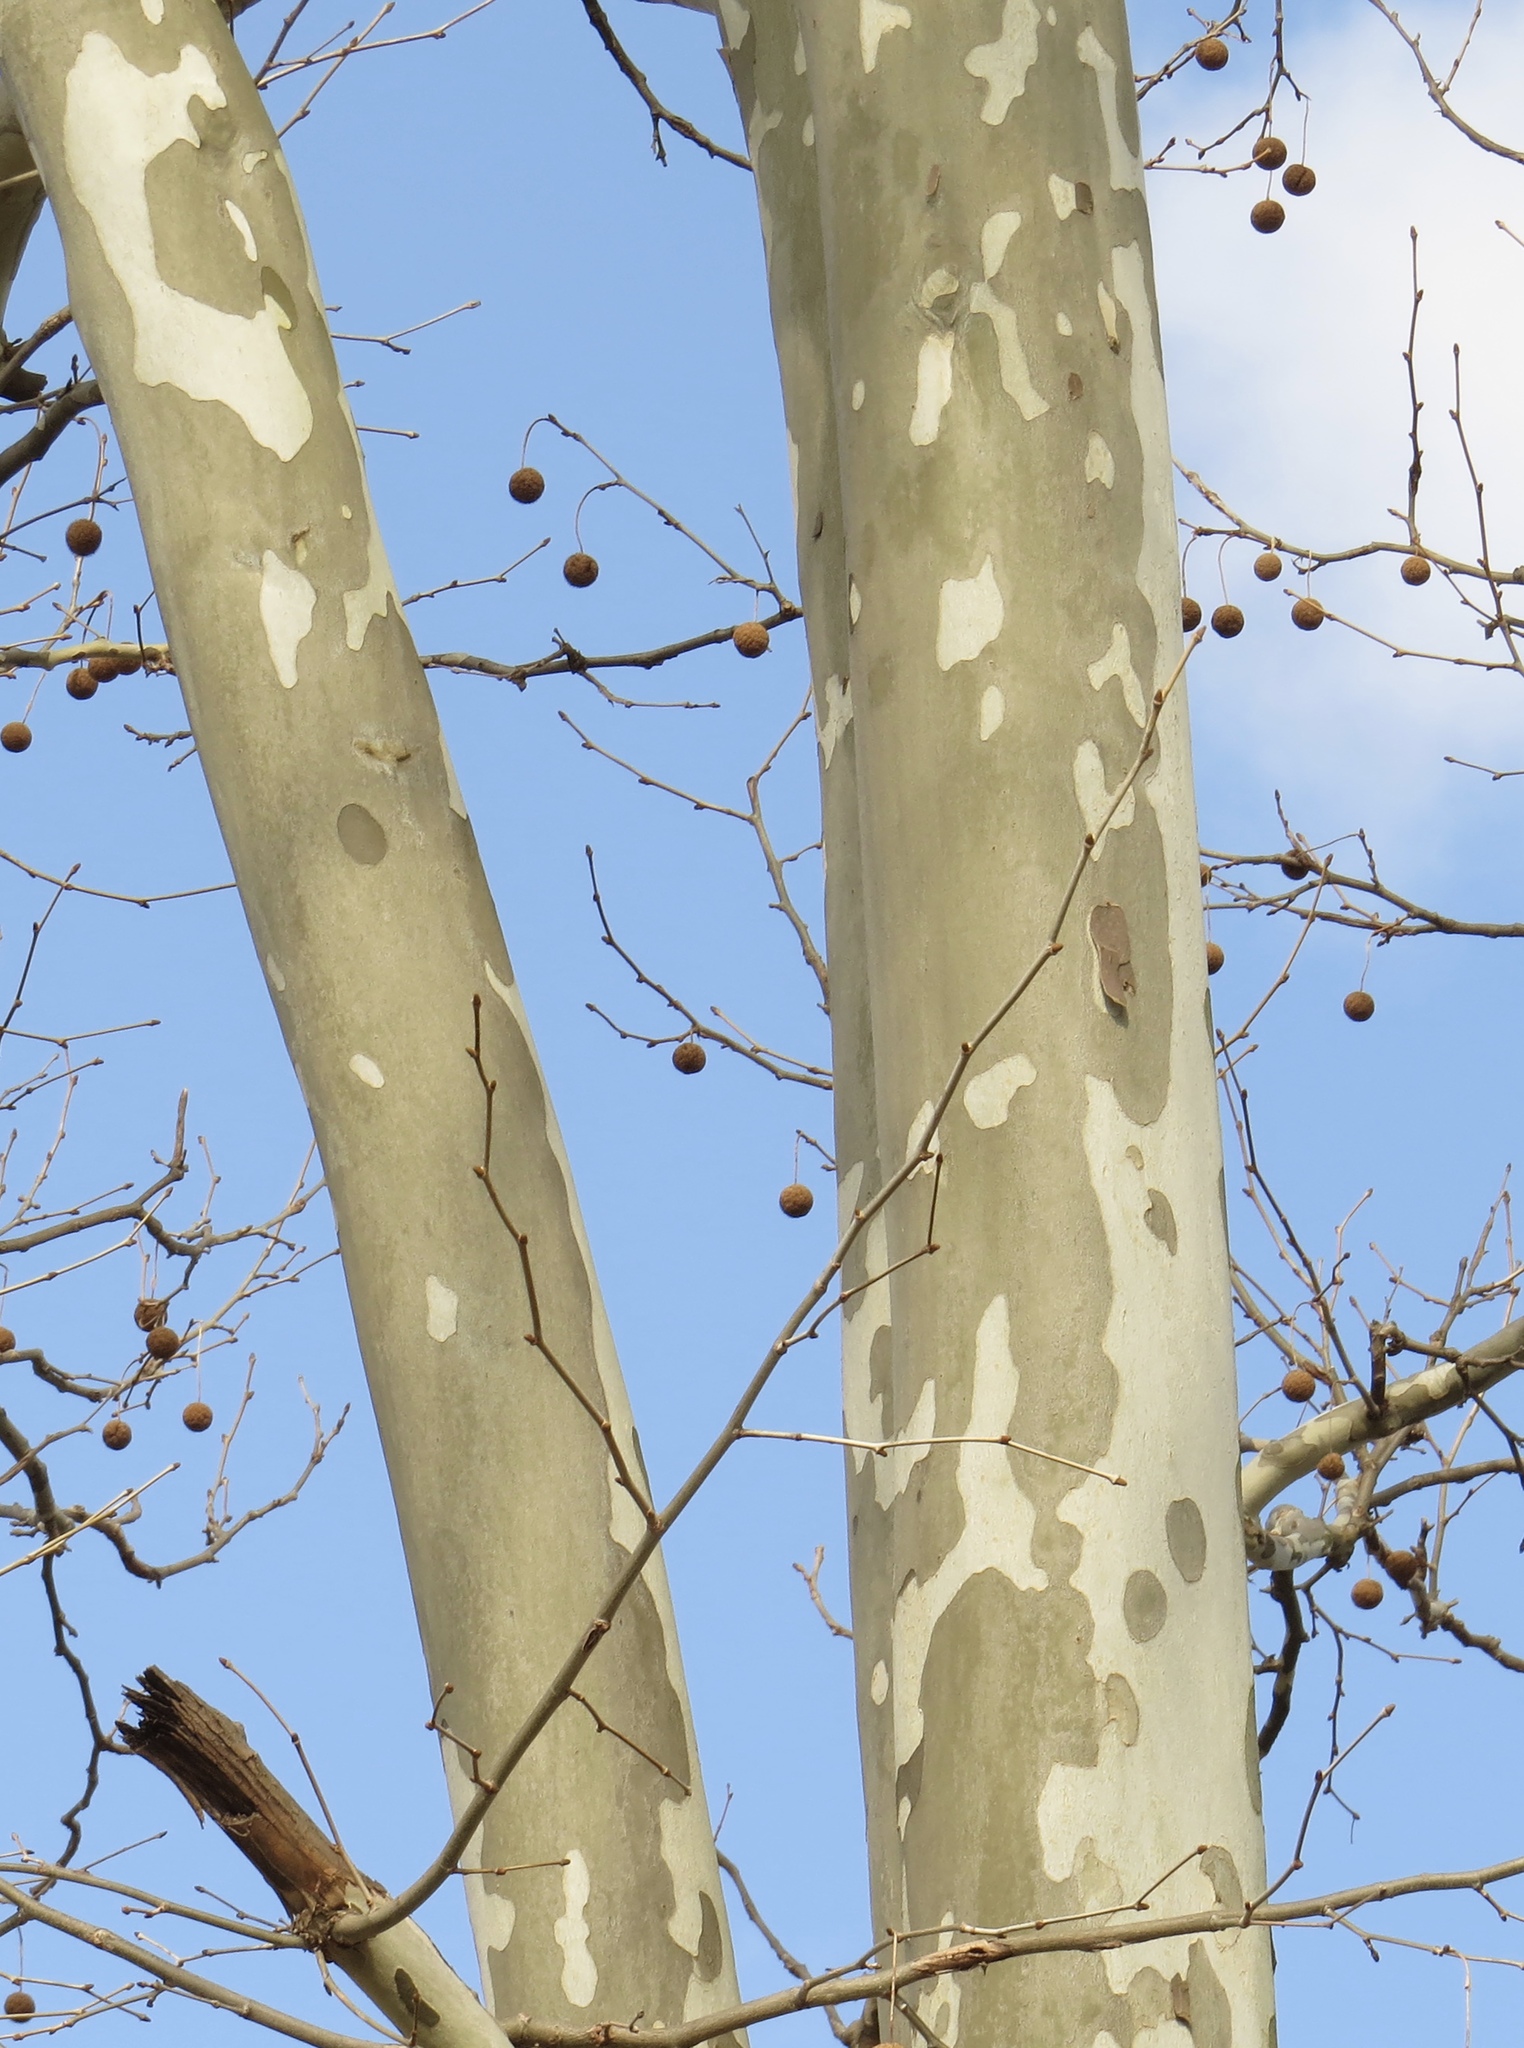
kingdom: Plantae
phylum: Tracheophyta
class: Magnoliopsida
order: Proteales
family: Platanaceae
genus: Platanus
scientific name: Platanus occidentalis
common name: American sycamore
